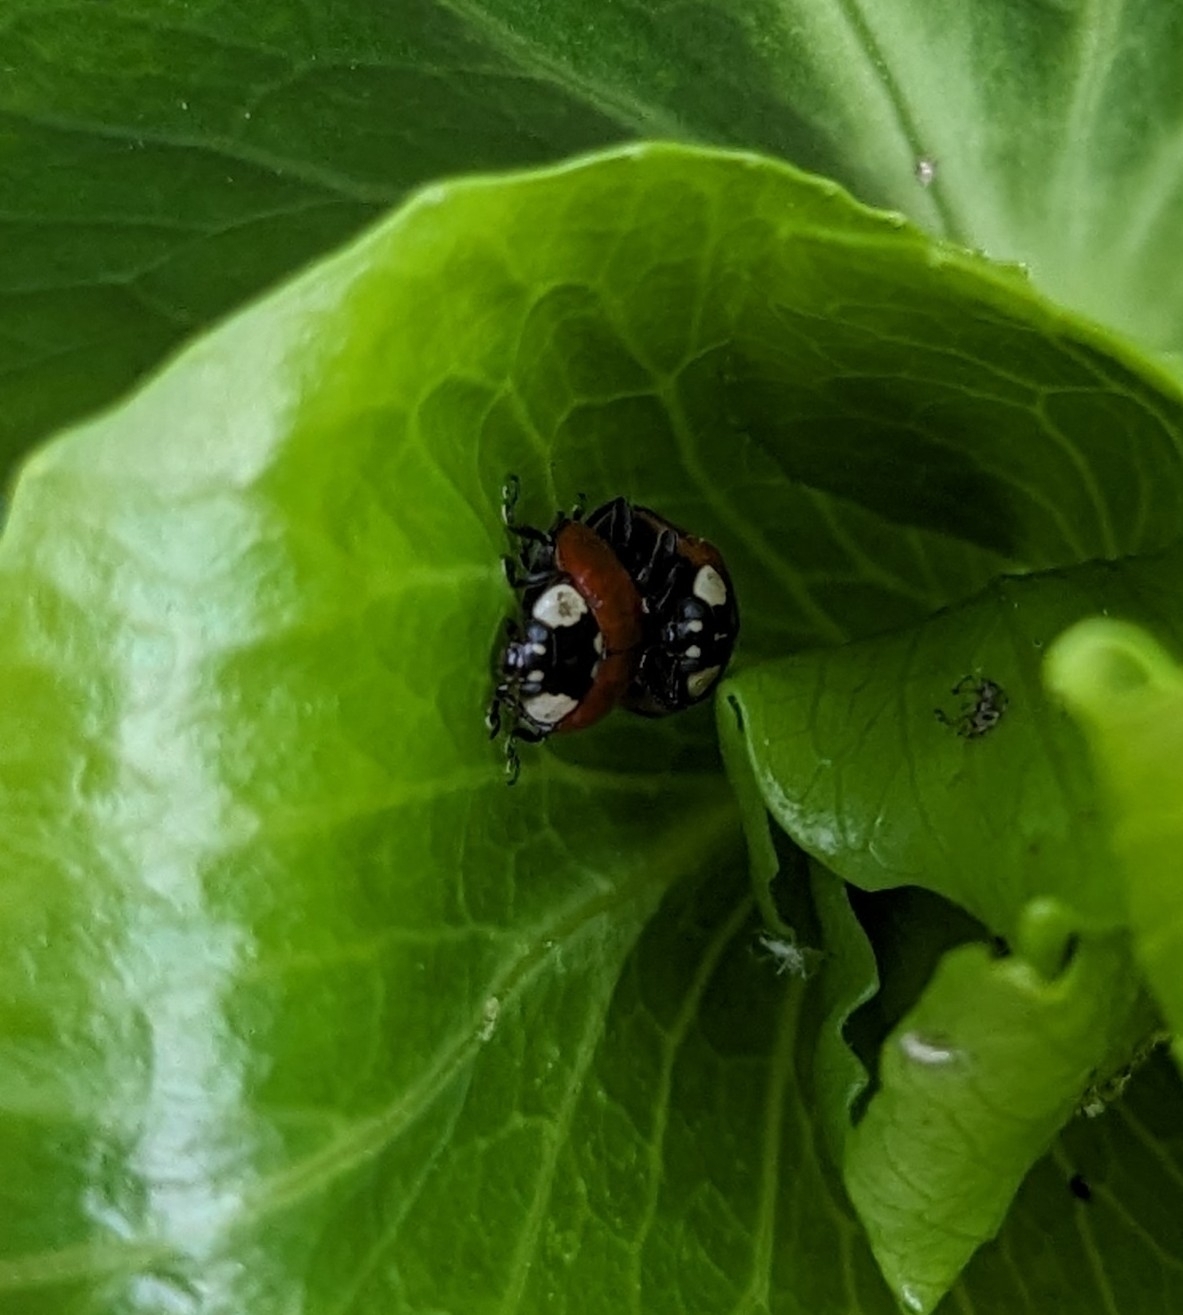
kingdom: Animalia
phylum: Arthropoda
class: Insecta
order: Coleoptera
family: Coccinellidae
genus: Adalia
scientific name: Adalia bipunctata
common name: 2-spot ladybird
